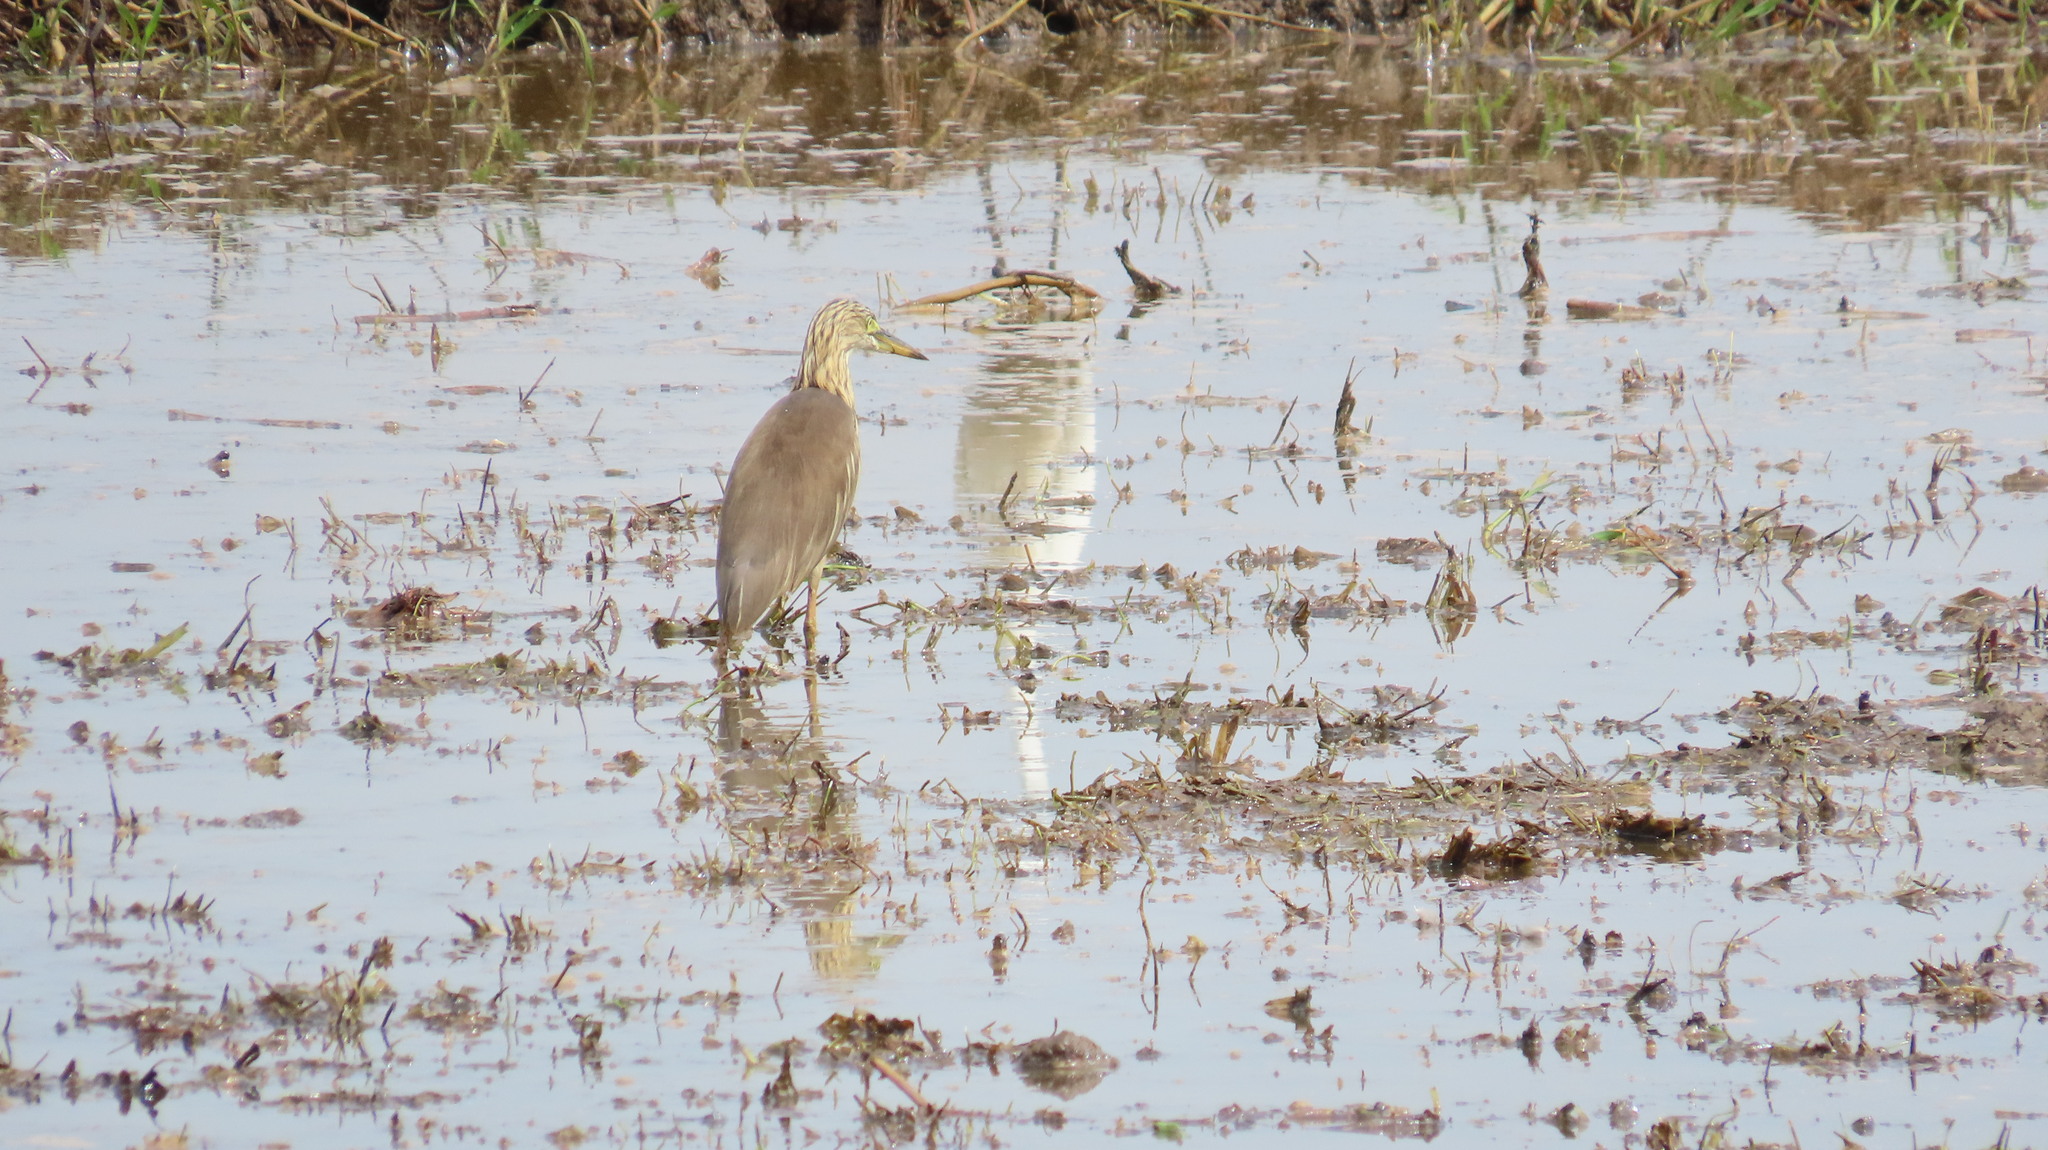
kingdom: Animalia
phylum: Chordata
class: Aves
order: Pelecaniformes
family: Ardeidae
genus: Ardeola
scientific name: Ardeola grayii
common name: Indian pond heron
